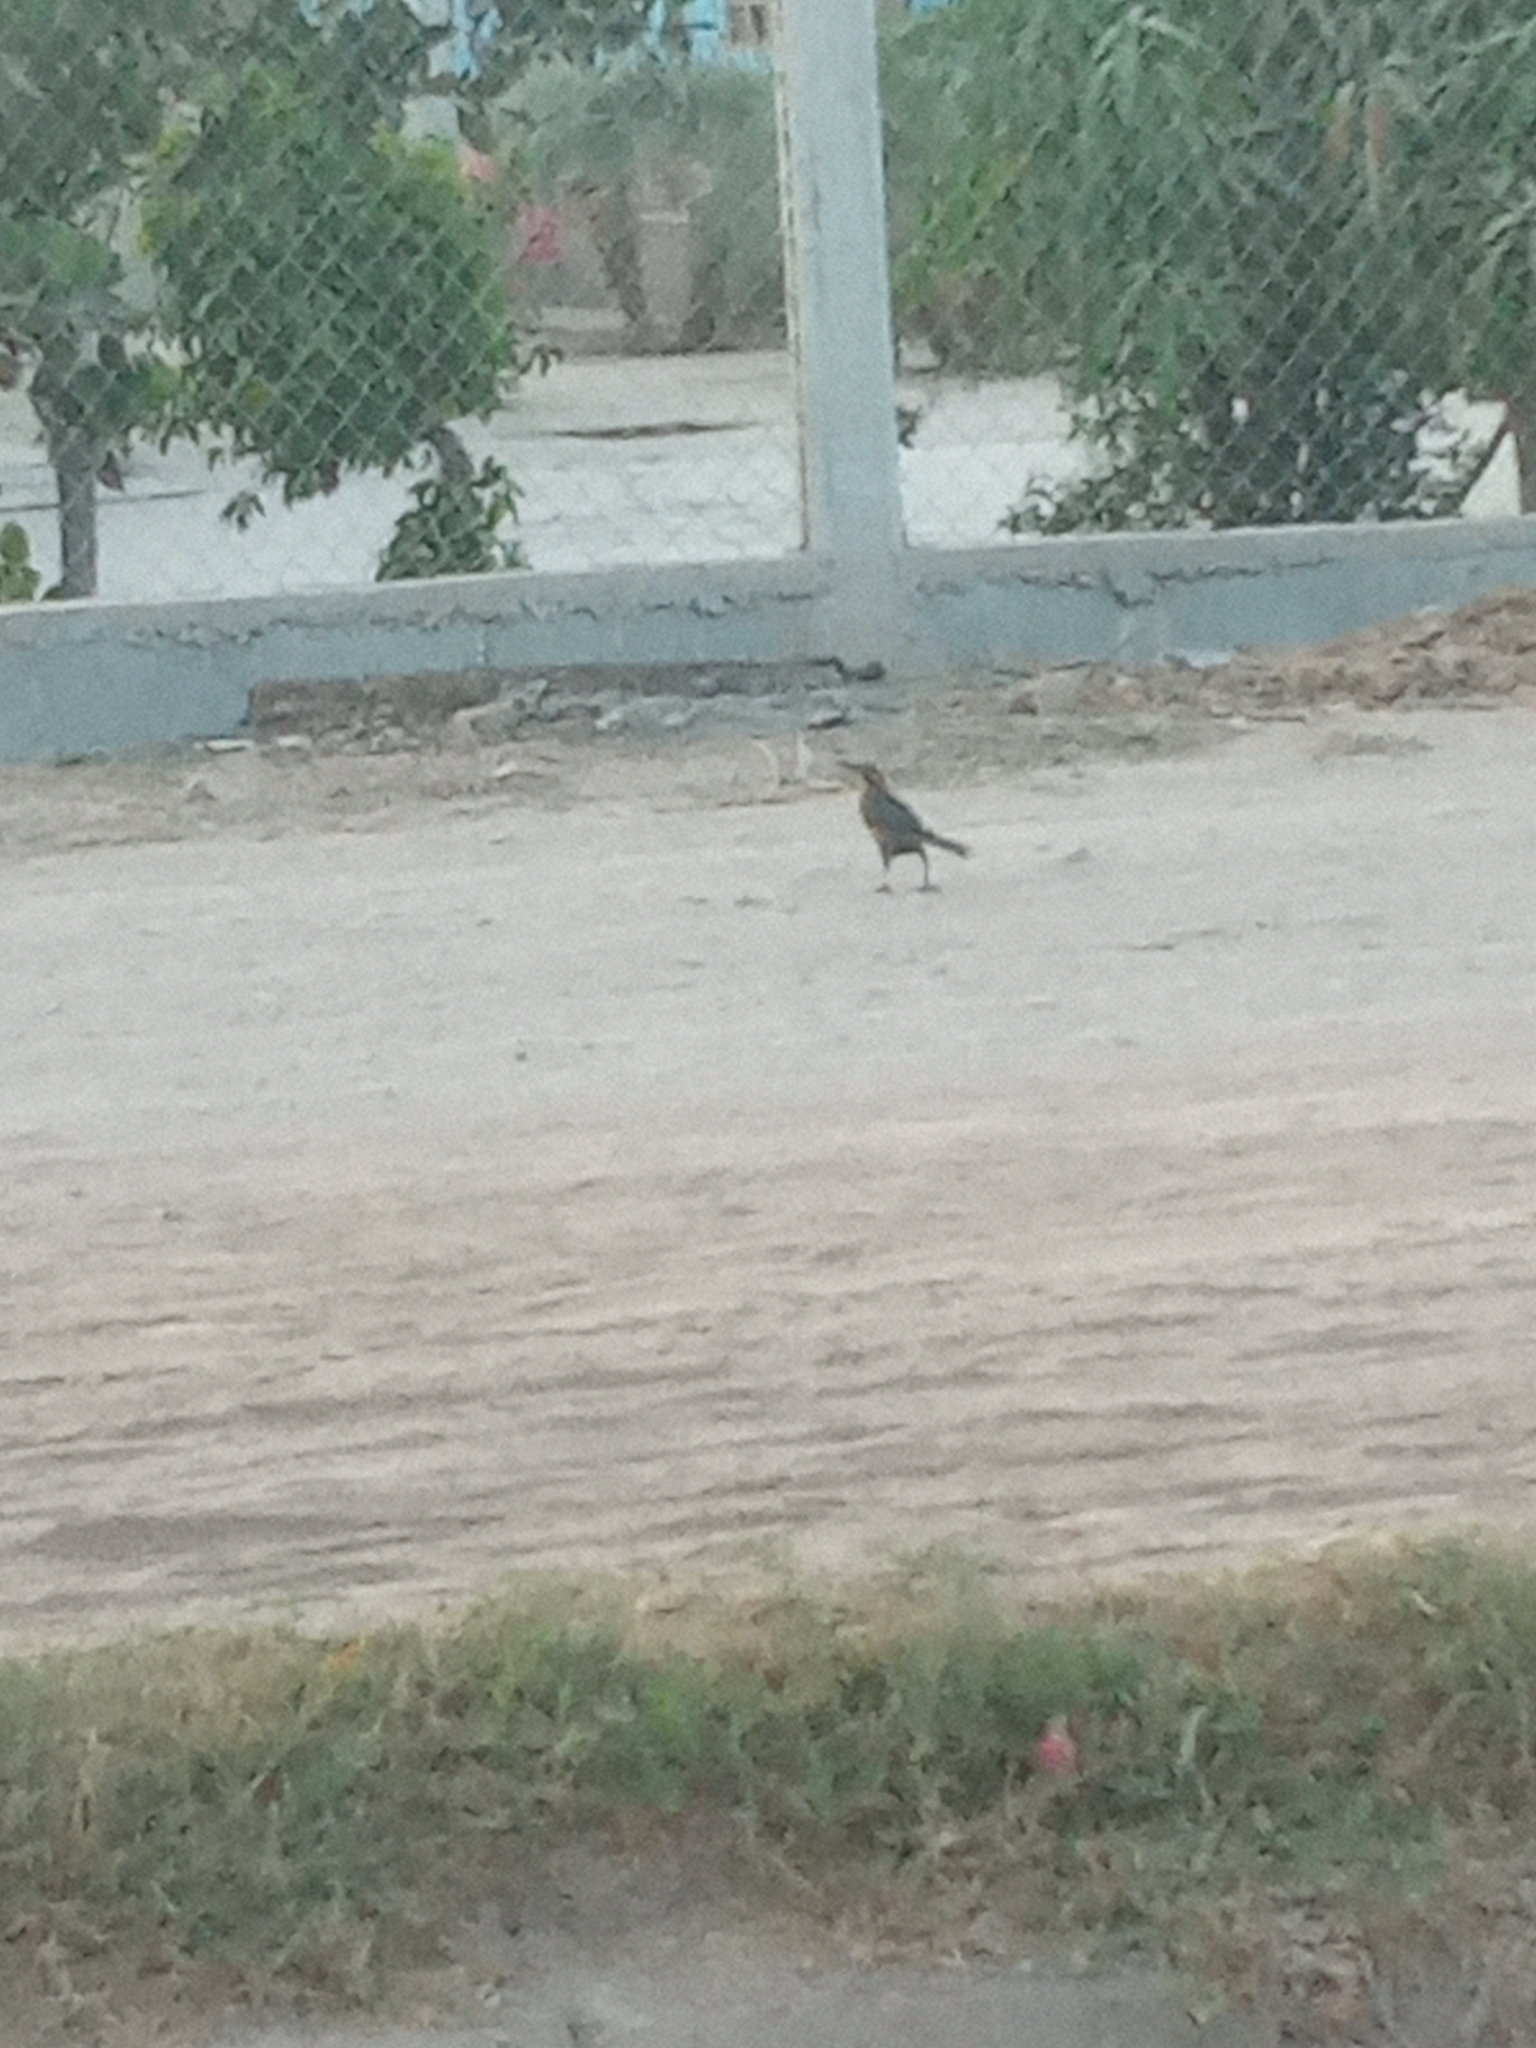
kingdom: Animalia
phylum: Chordata
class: Aves
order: Passeriformes
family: Icteridae
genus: Quiscalus
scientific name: Quiscalus mexicanus
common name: Great-tailed grackle
